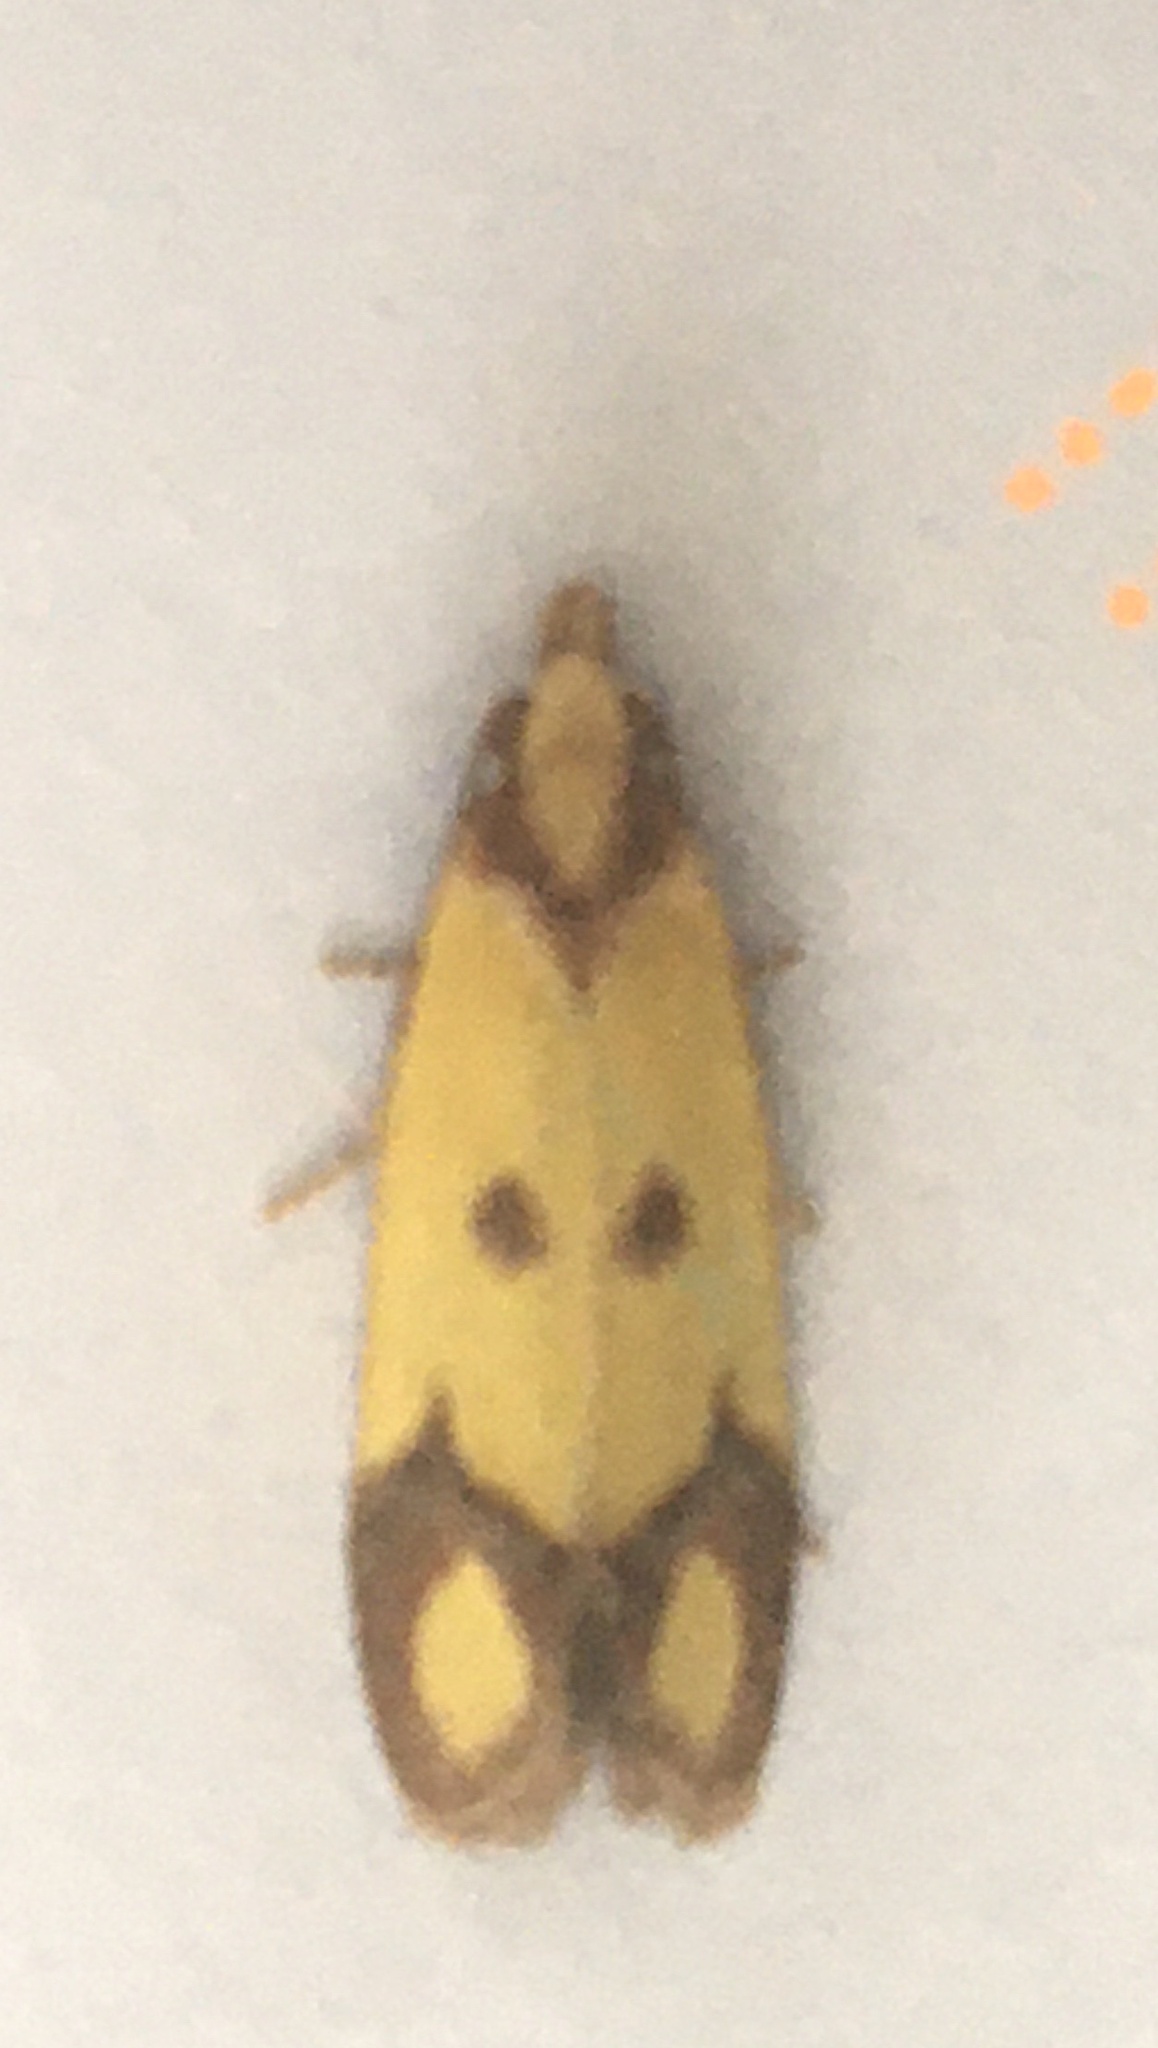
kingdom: Animalia
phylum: Arthropoda
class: Insecta
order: Lepidoptera
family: Tortricidae
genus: Agapeta
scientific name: Agapeta zoegana
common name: Sulfur knapweed root moth
